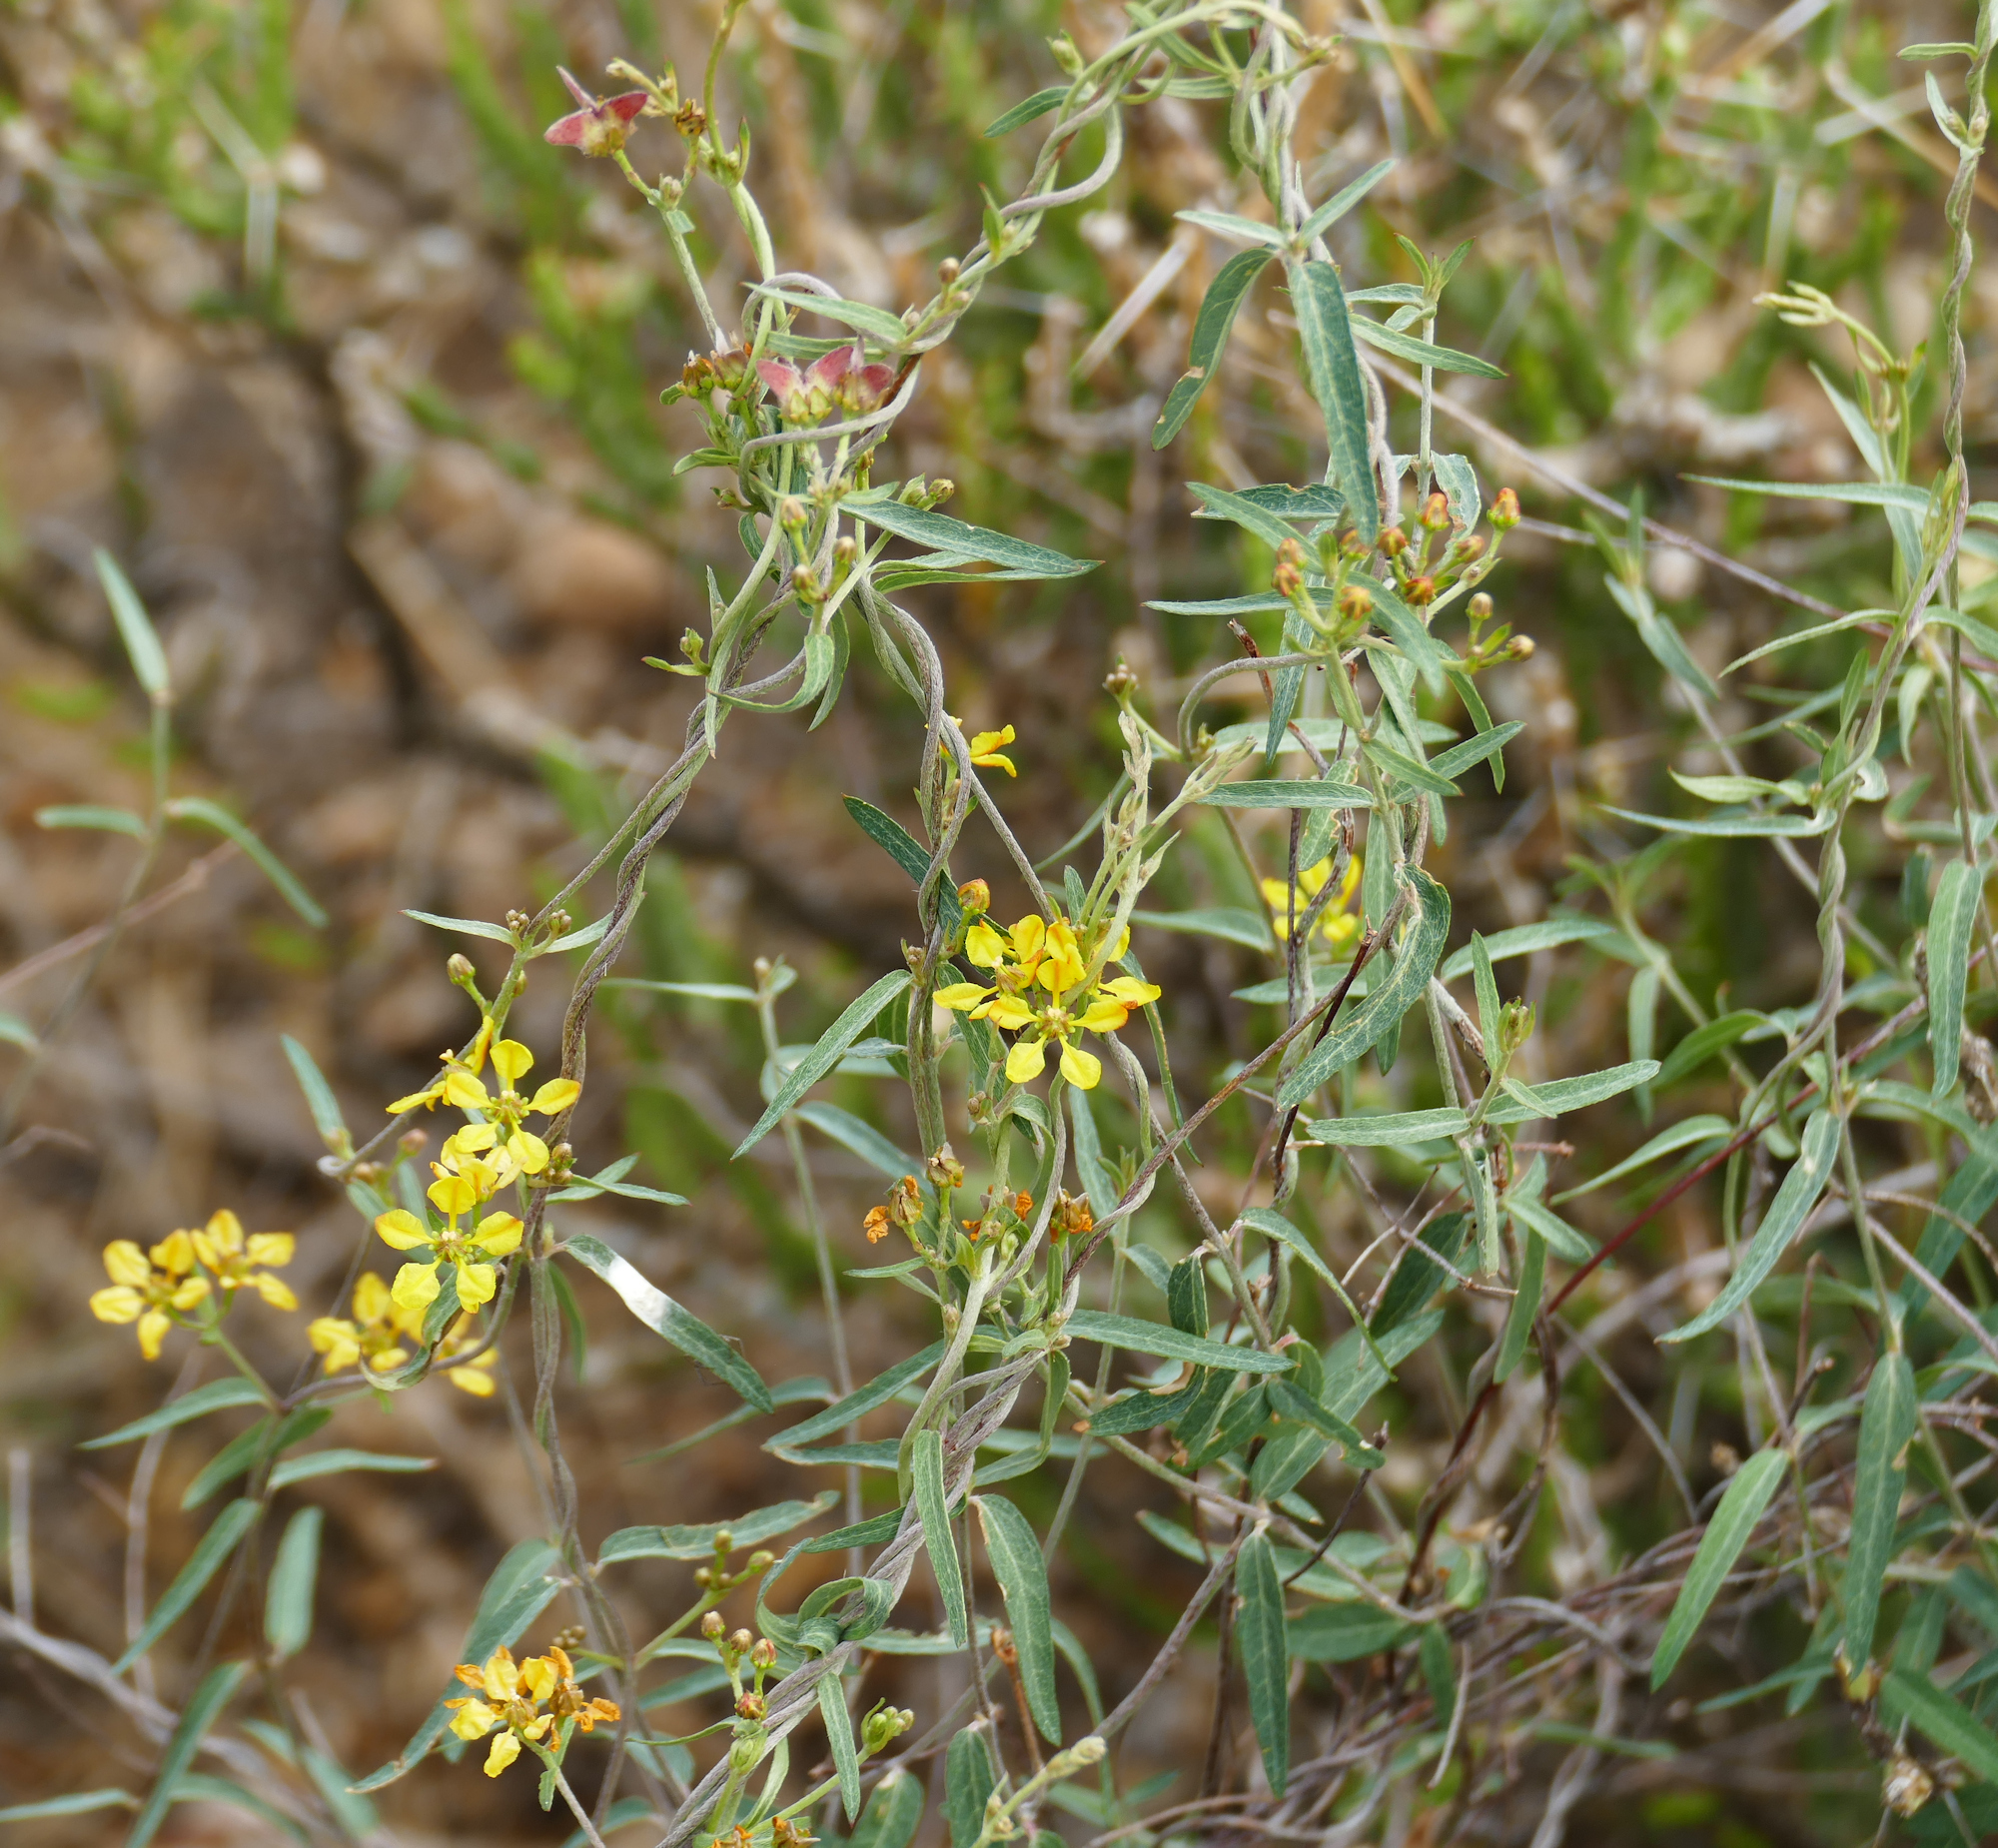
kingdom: Plantae
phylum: Tracheophyta
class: Magnoliopsida
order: Malpighiales
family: Malpighiaceae
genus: Cottsia
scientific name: Cottsia gracilis
